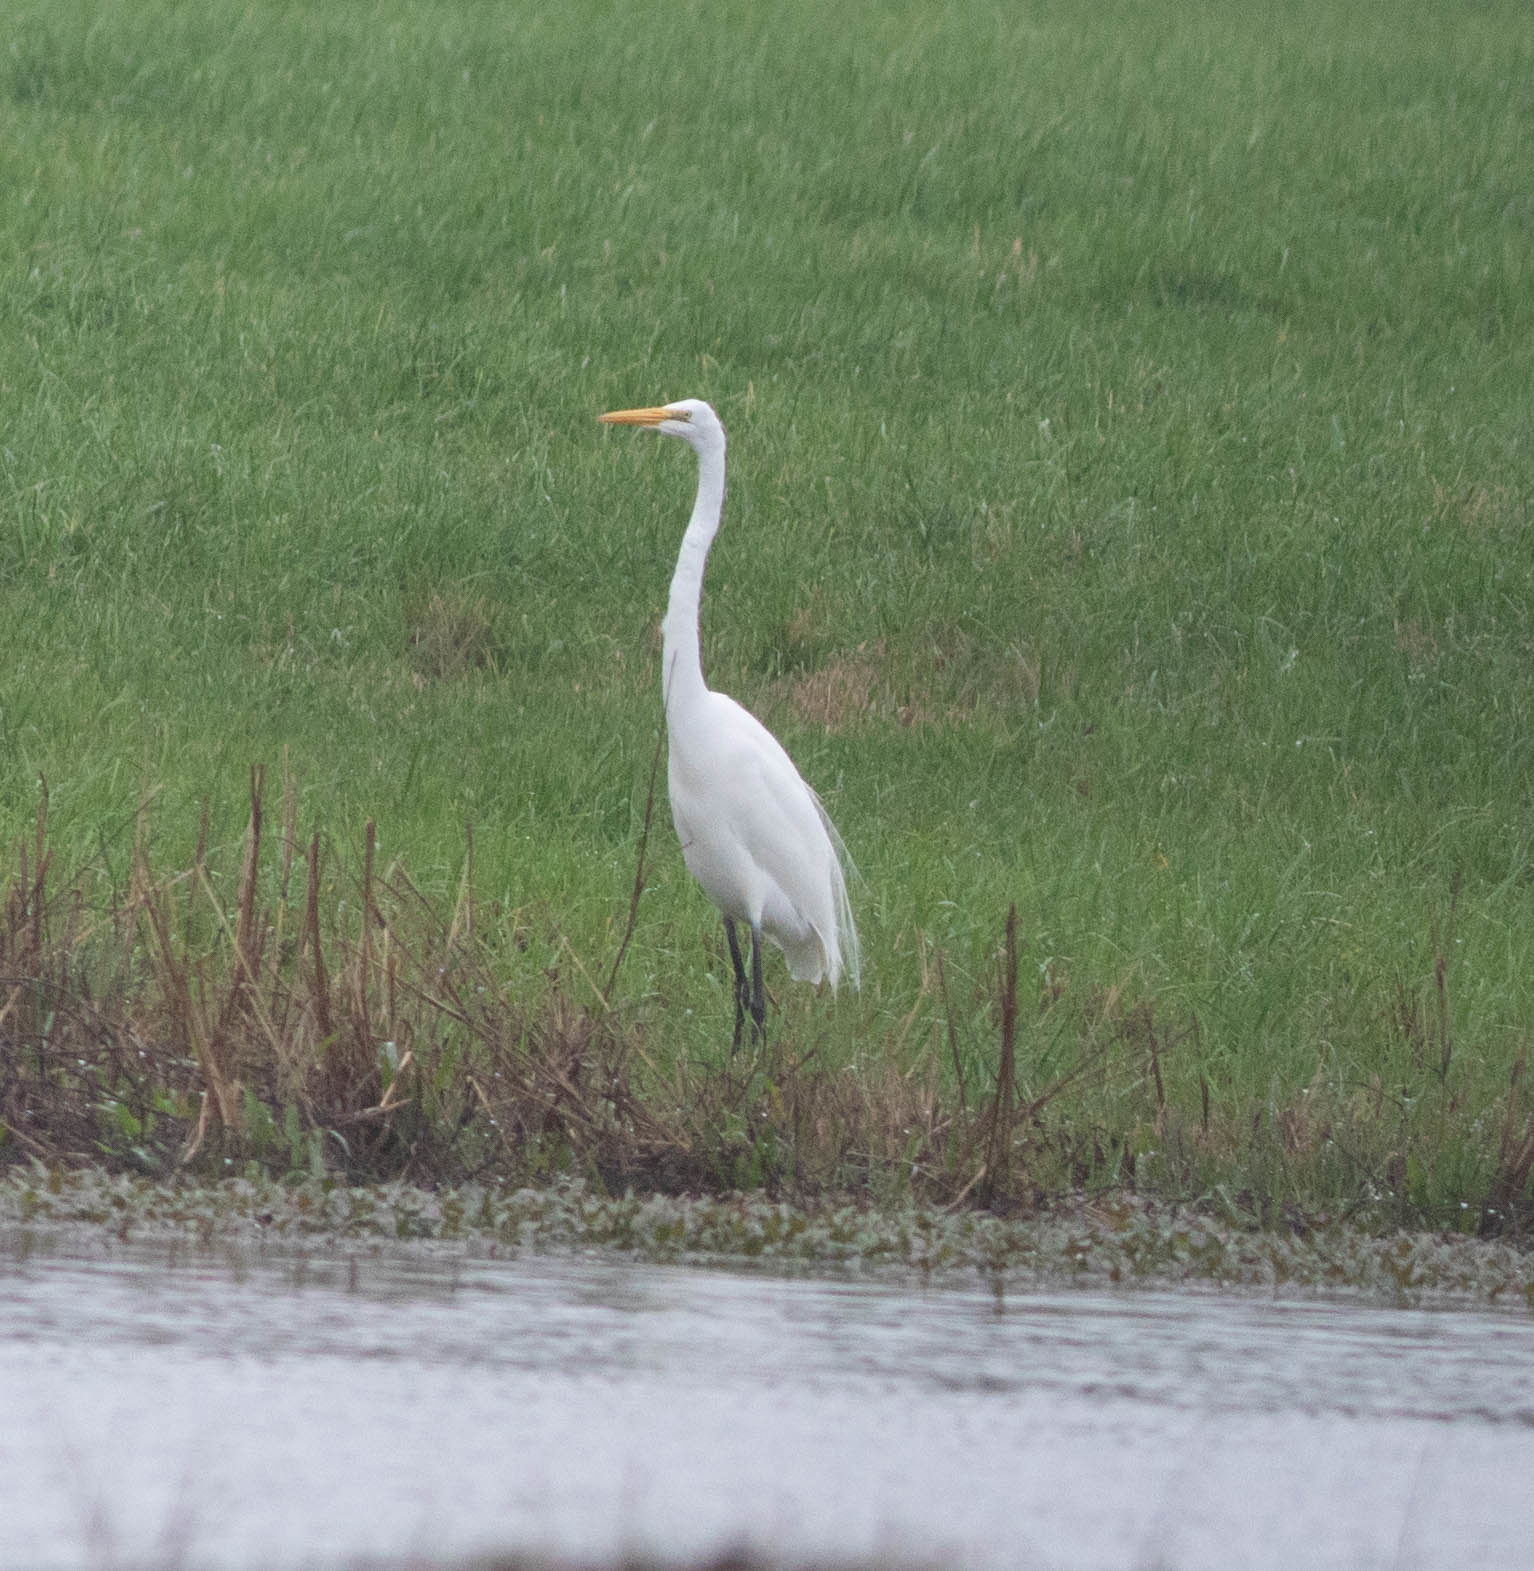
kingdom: Animalia
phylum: Chordata
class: Aves
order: Pelecaniformes
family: Ardeidae
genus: Ardea
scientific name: Ardea alba
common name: Great egret
